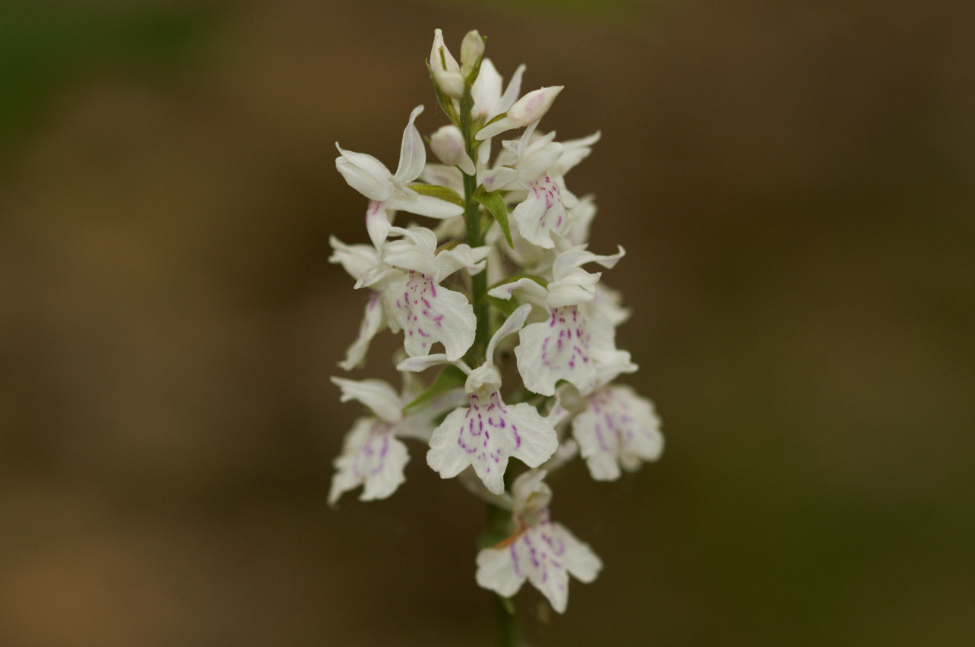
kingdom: Plantae
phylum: Tracheophyta
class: Liliopsida
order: Asparagales
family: Orchidaceae
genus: Dactylorhiza
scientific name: Dactylorhiza maculata
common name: Heath spotted-orchid
